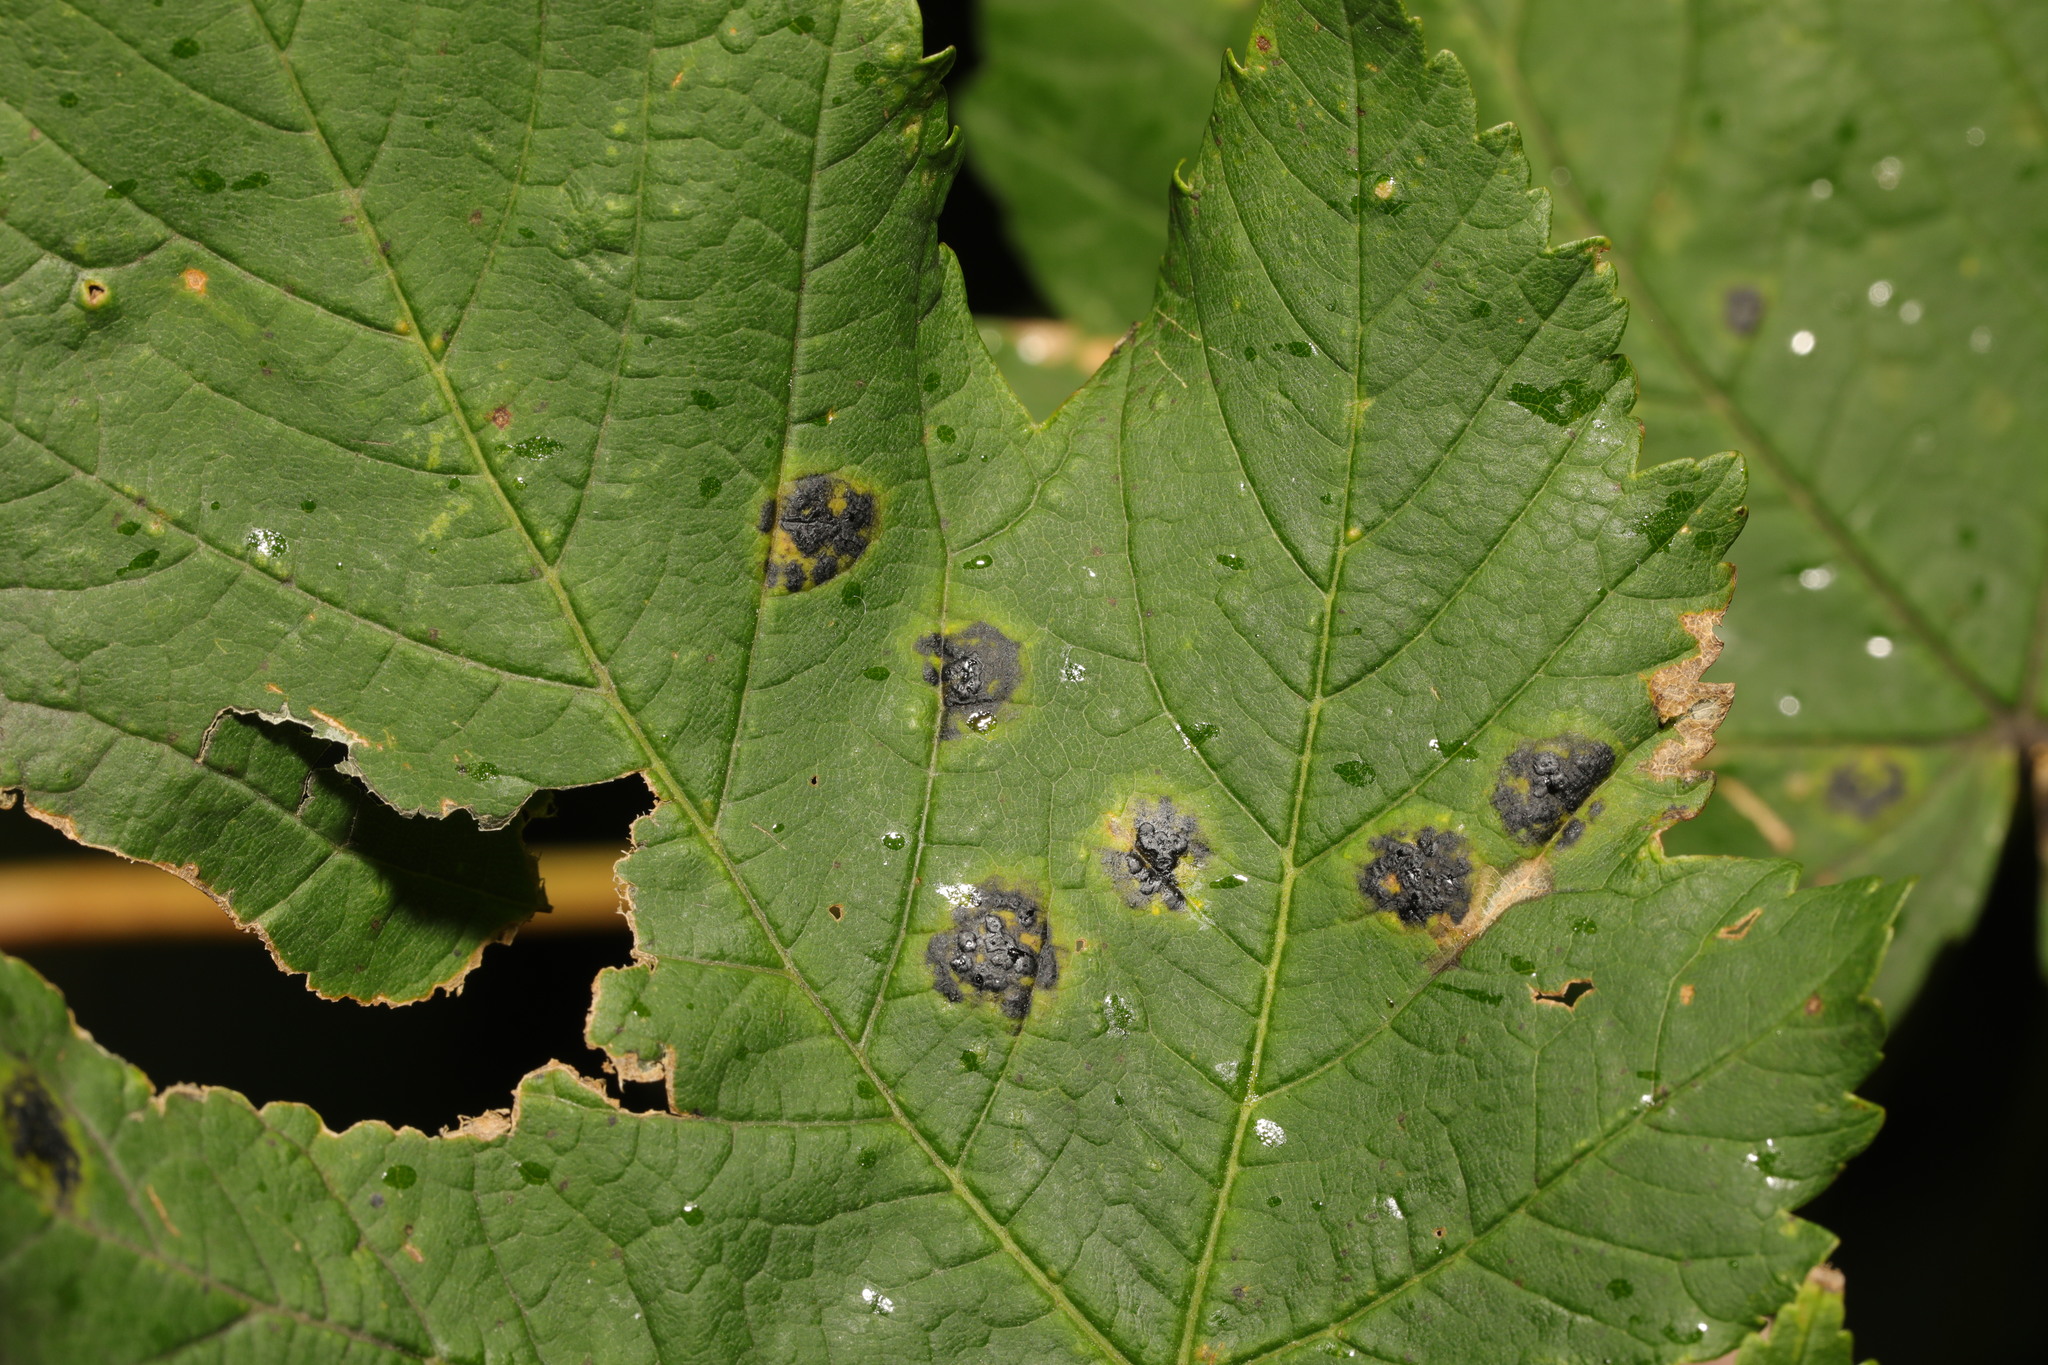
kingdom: Fungi
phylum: Ascomycota
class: Leotiomycetes
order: Rhytismatales
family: Rhytismataceae
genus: Rhytisma
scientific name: Rhytisma acerinum
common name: European tar spot
